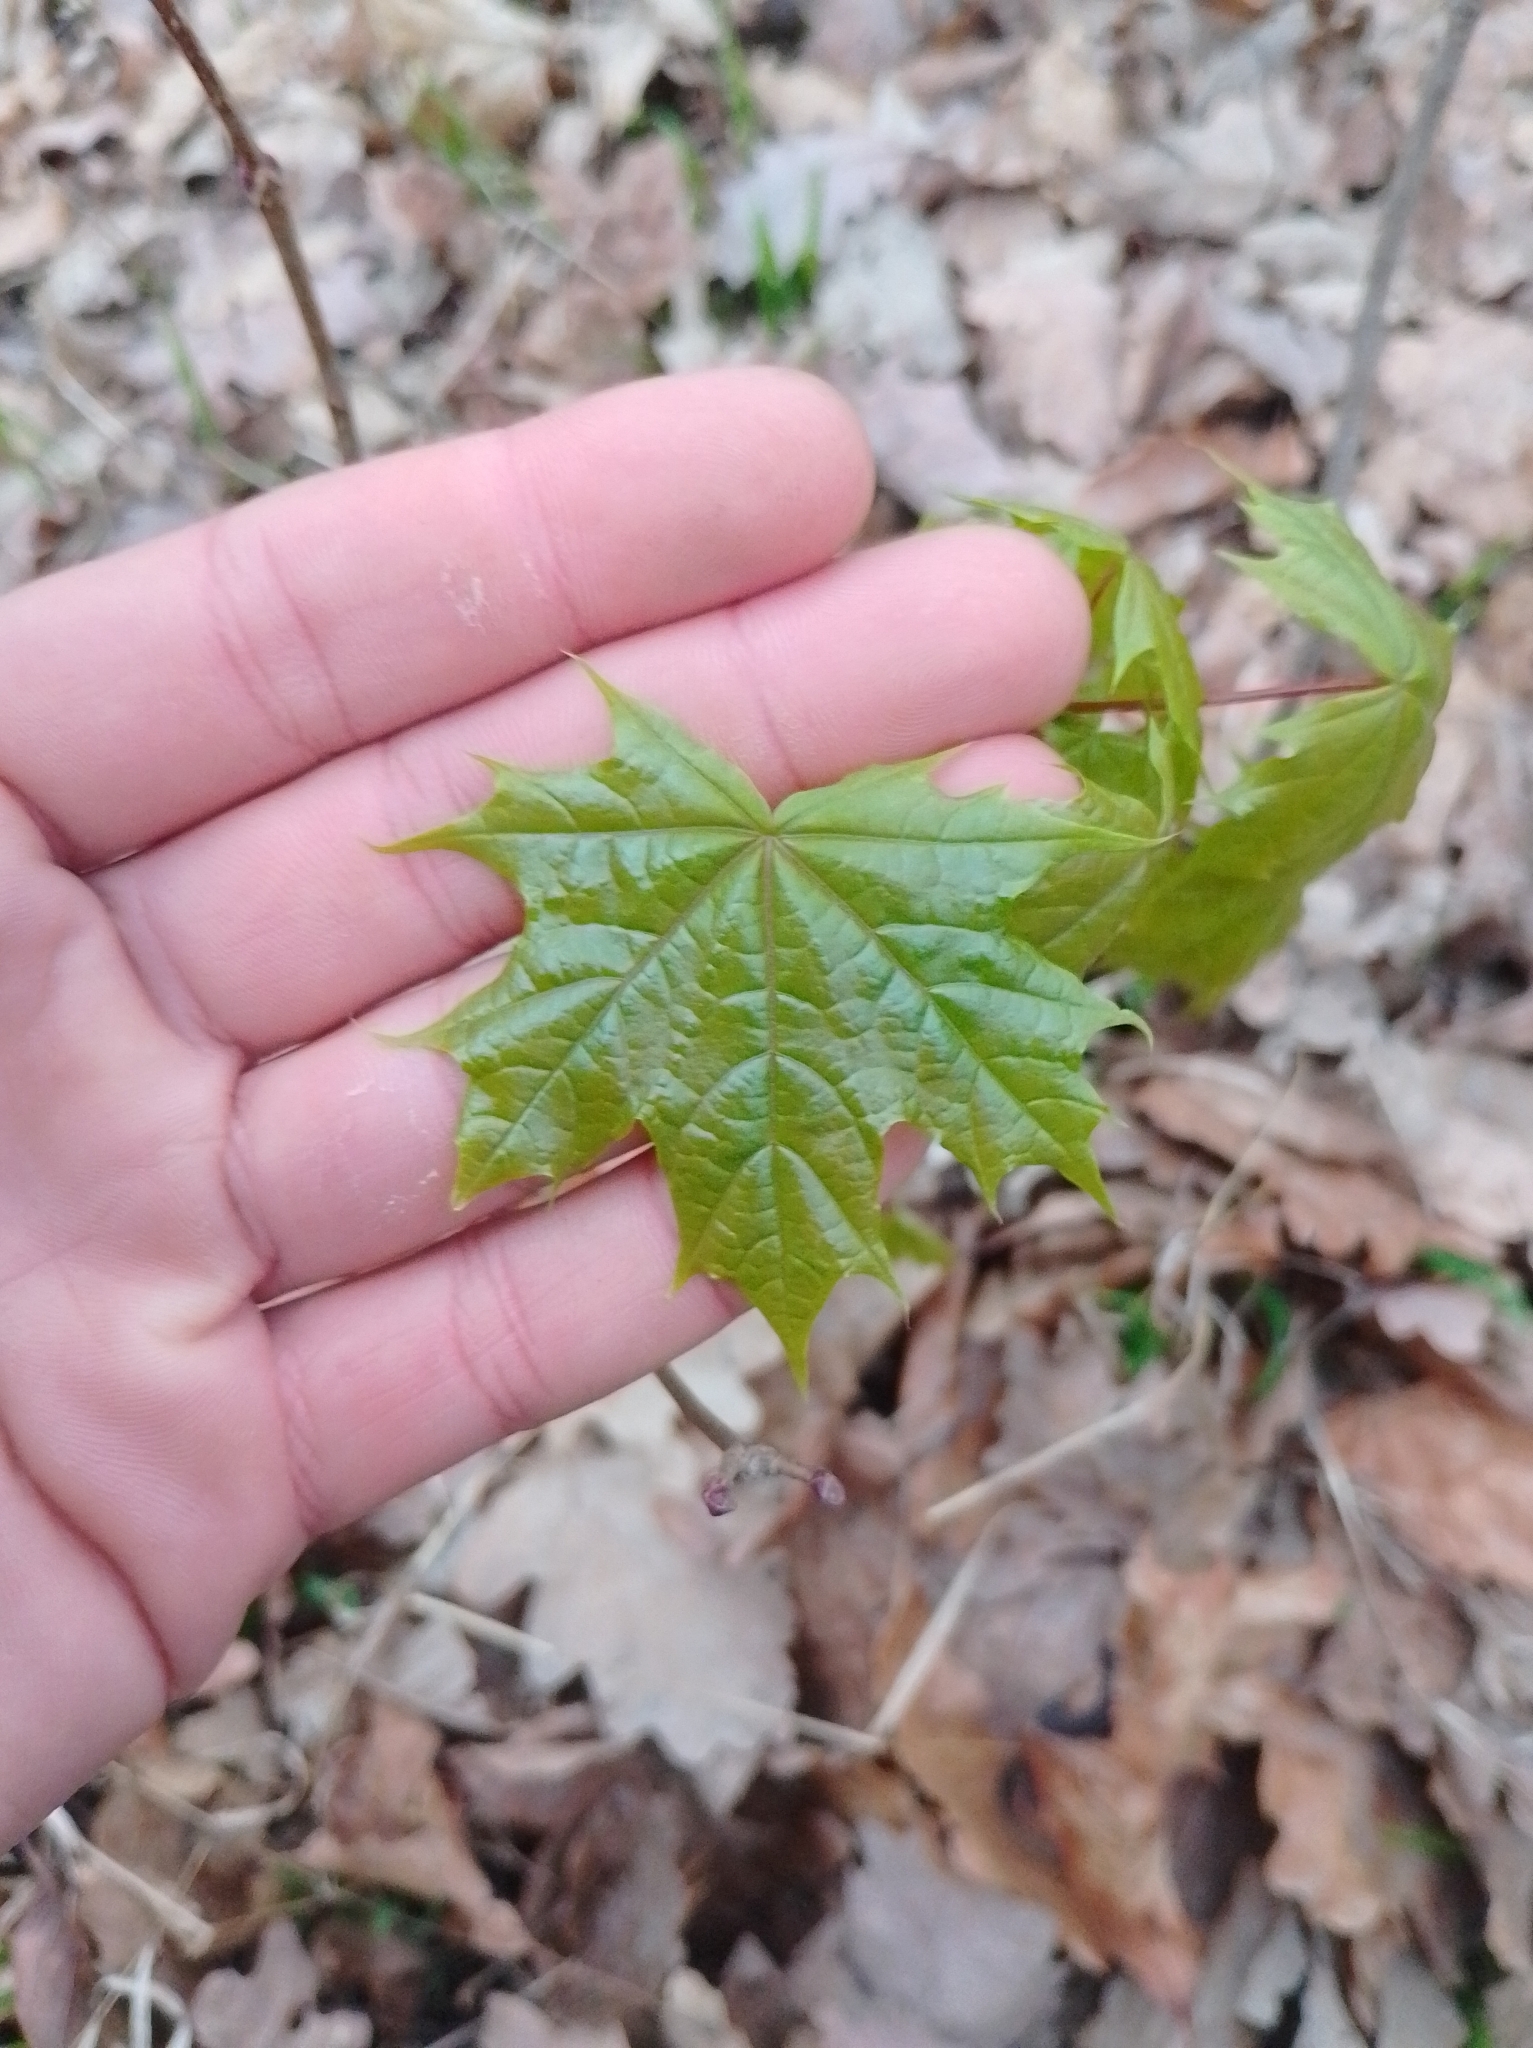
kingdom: Plantae
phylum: Tracheophyta
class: Magnoliopsida
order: Sapindales
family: Sapindaceae
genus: Acer
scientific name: Acer platanoides
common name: Norway maple
